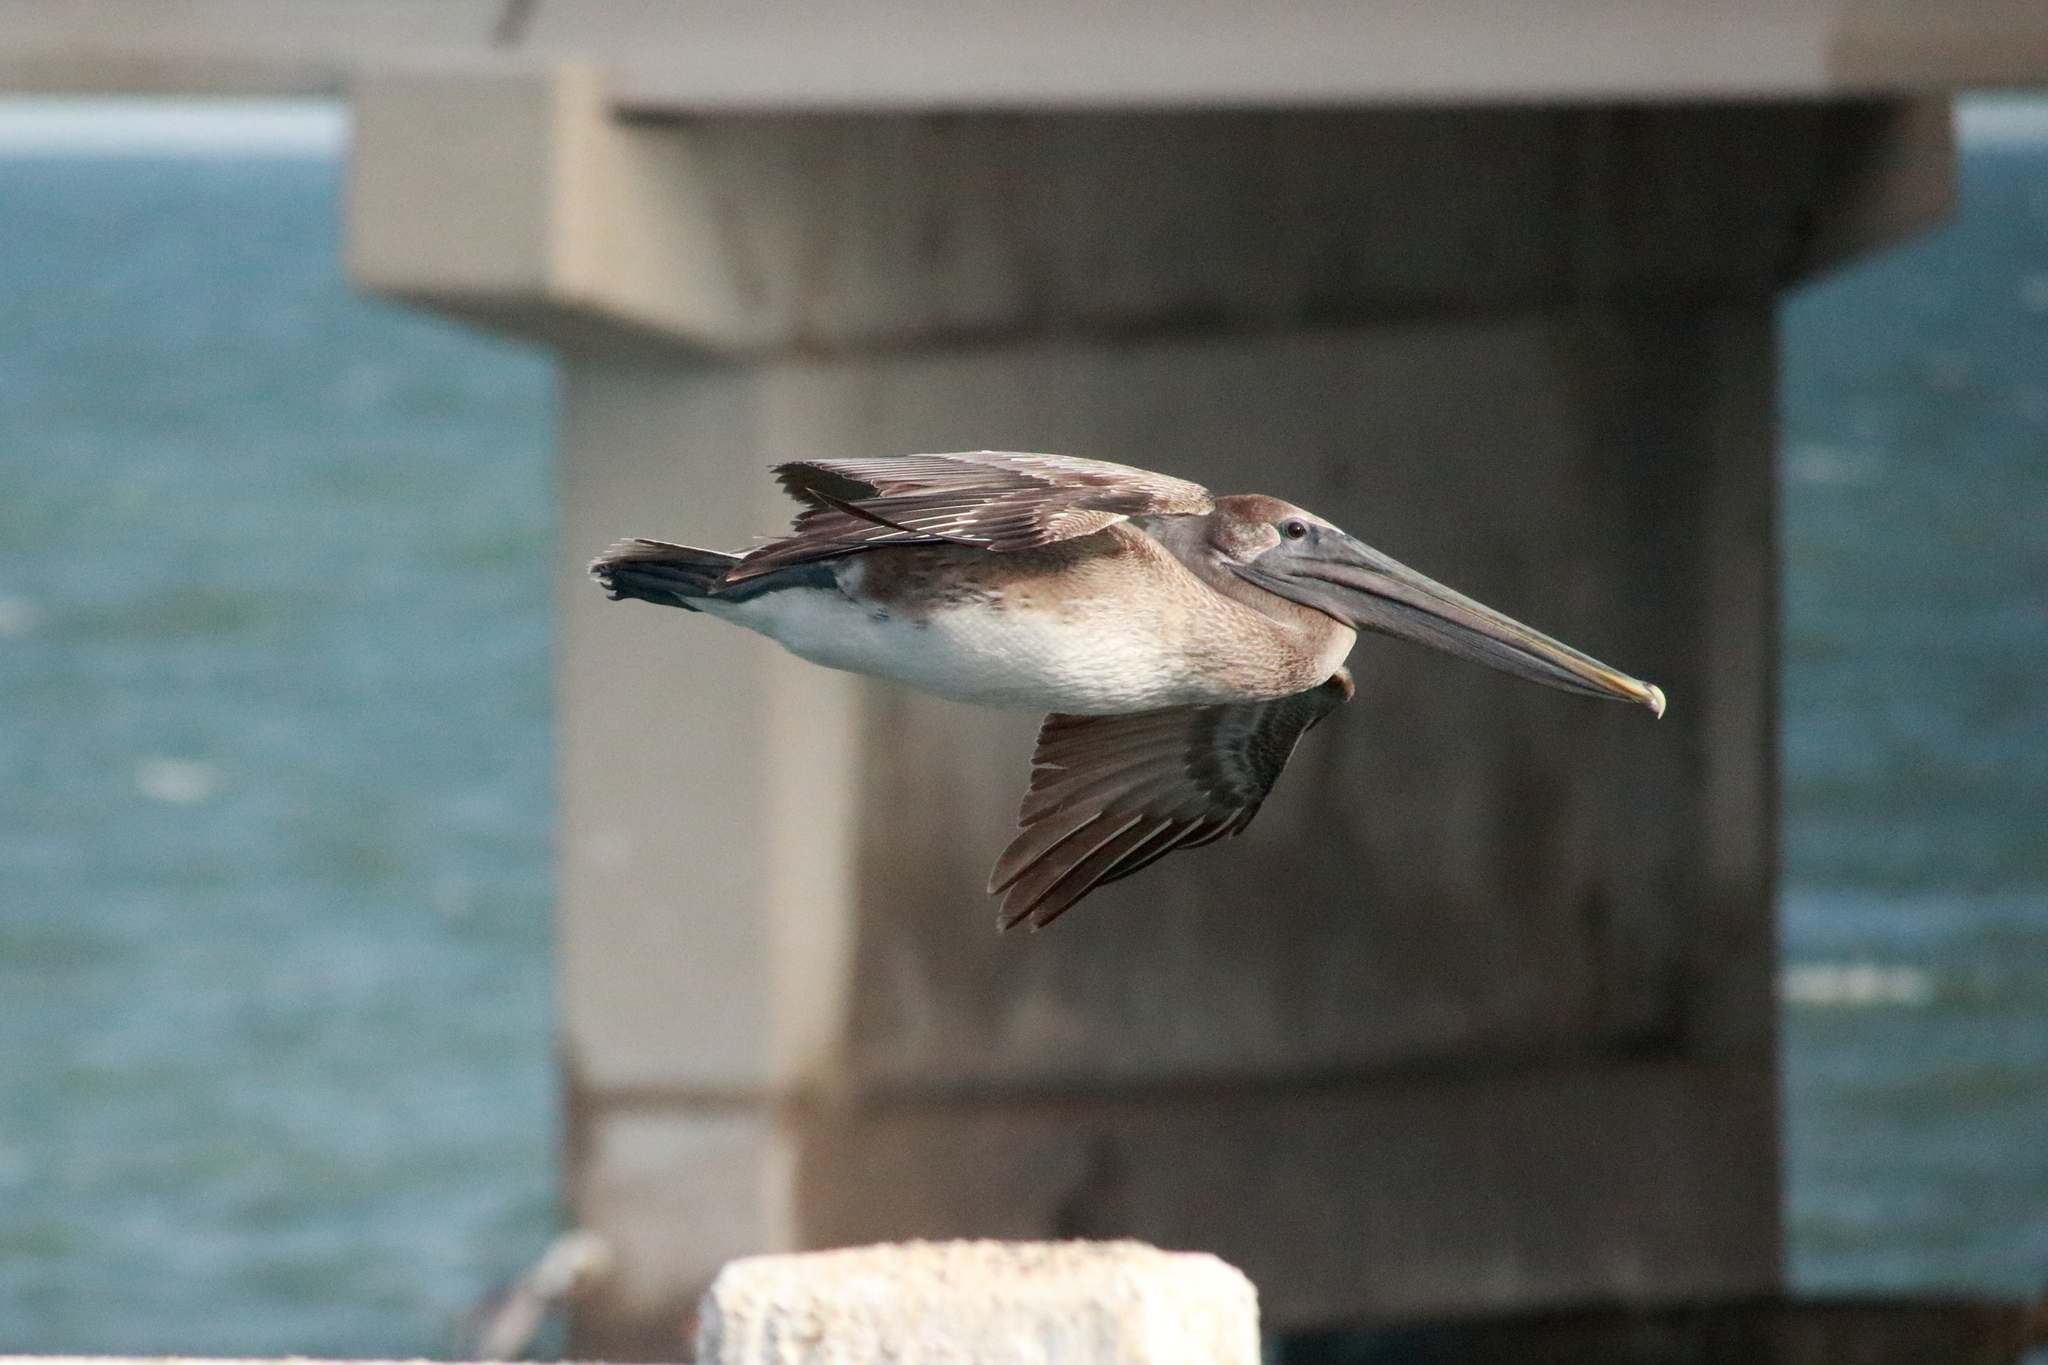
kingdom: Animalia
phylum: Chordata
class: Aves
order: Pelecaniformes
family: Pelecanidae
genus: Pelecanus
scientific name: Pelecanus occidentalis
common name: Brown pelican
